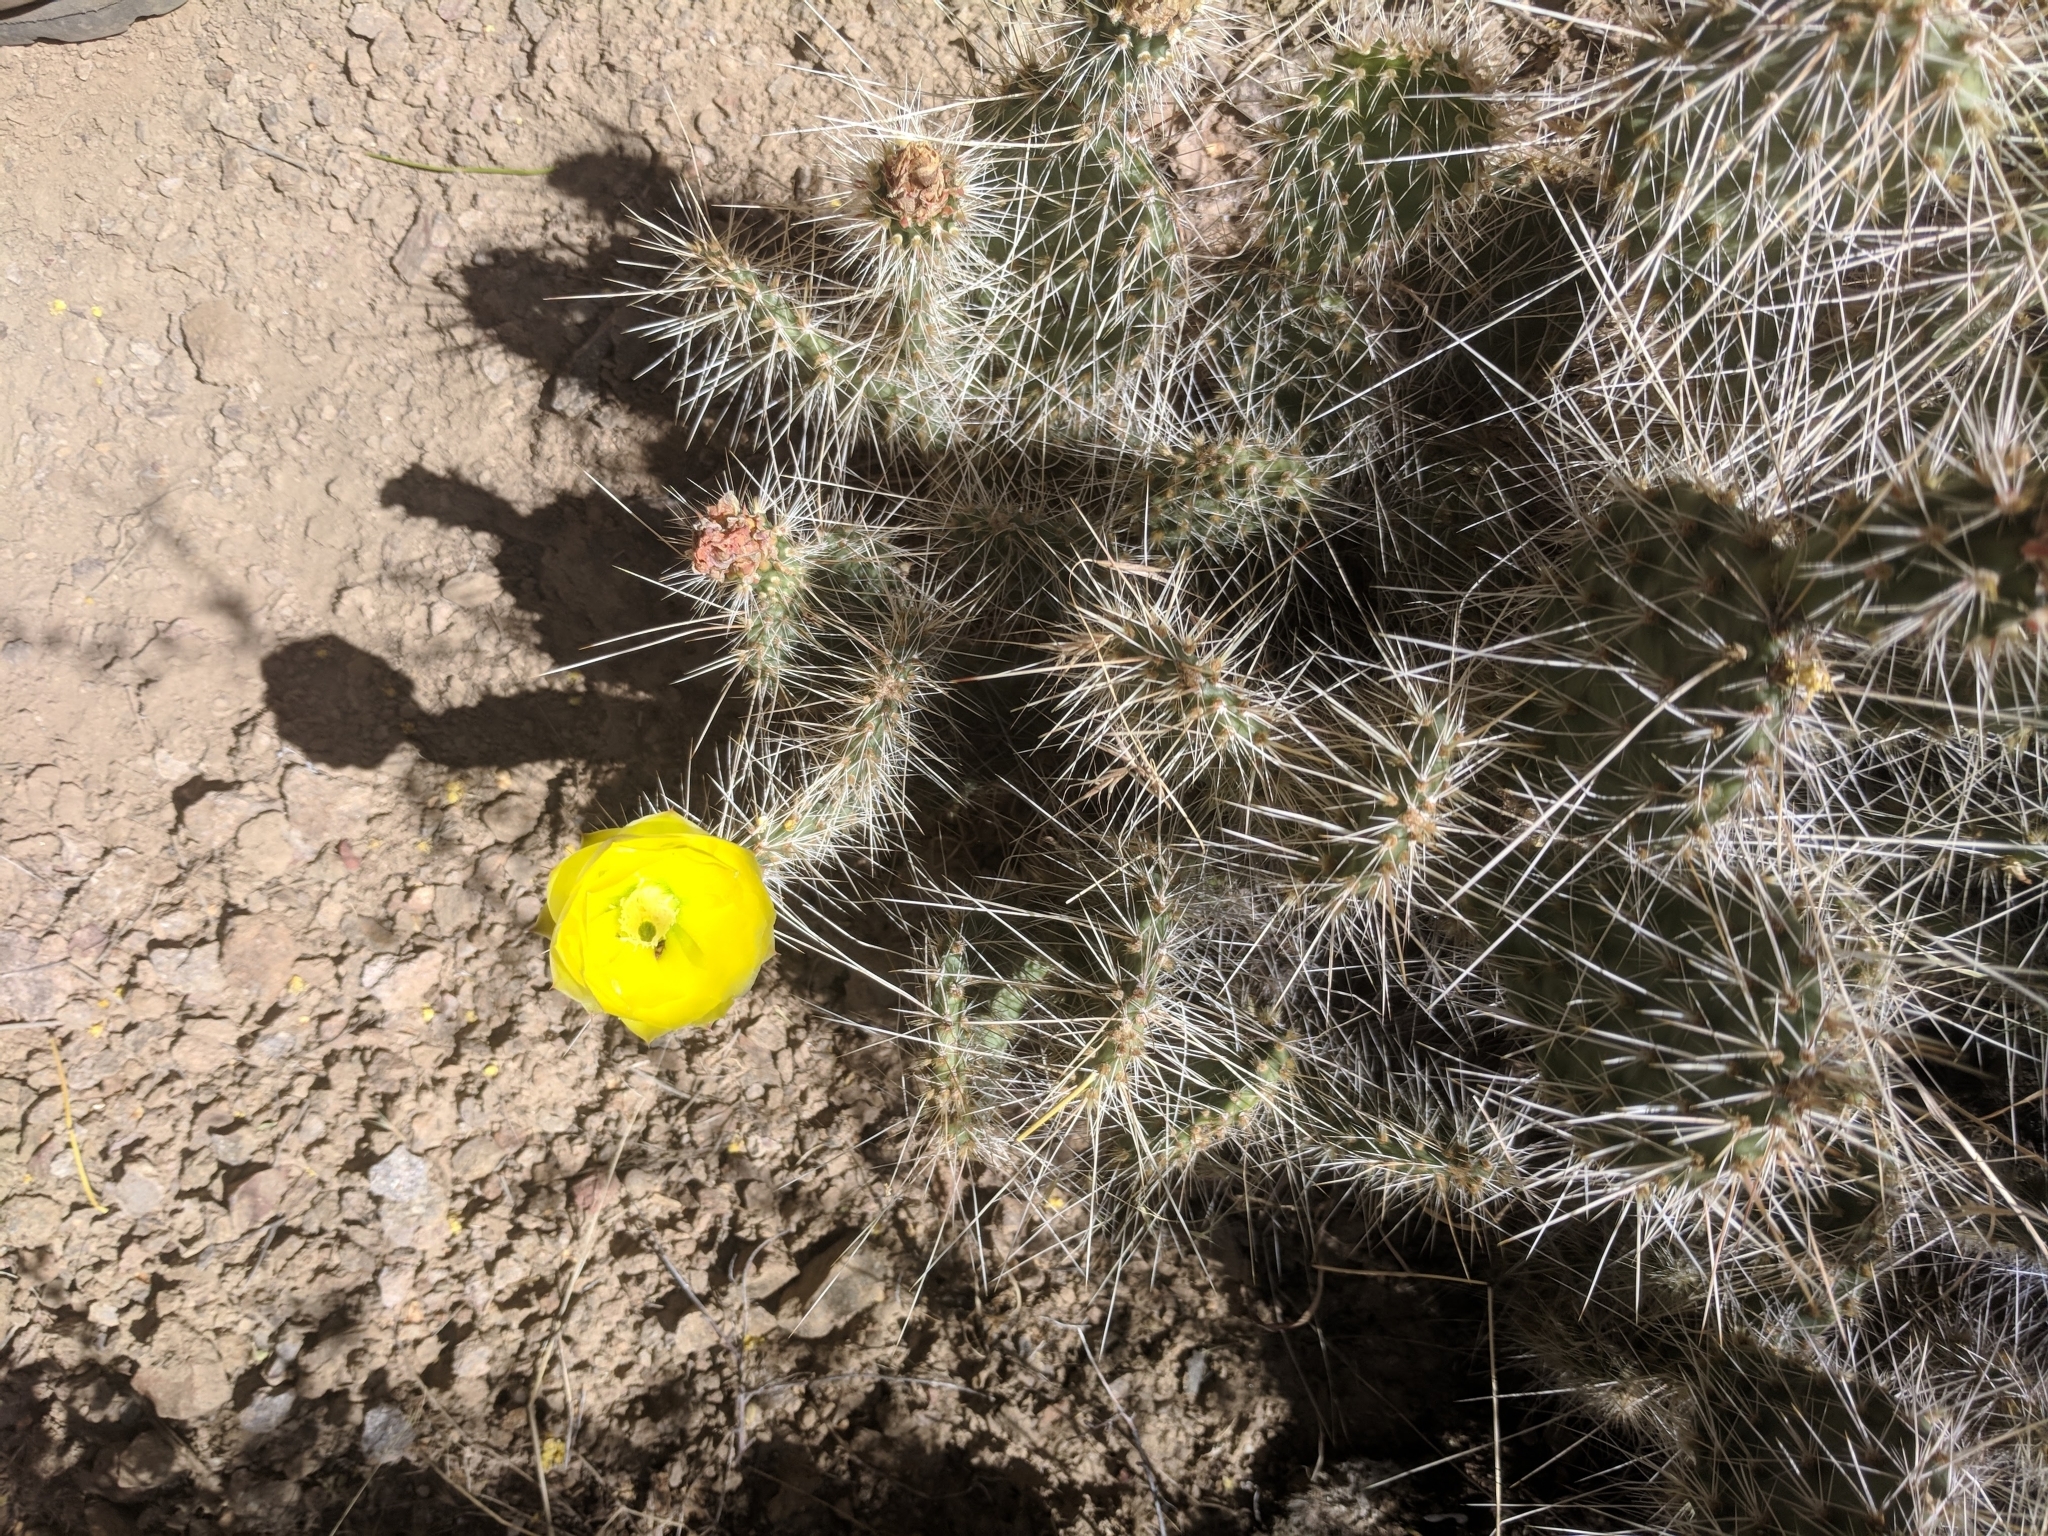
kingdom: Plantae
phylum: Tracheophyta
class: Magnoliopsida
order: Caryophyllales
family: Cactaceae
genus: Opuntia
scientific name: Opuntia polyacantha
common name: Plains prickly-pear
